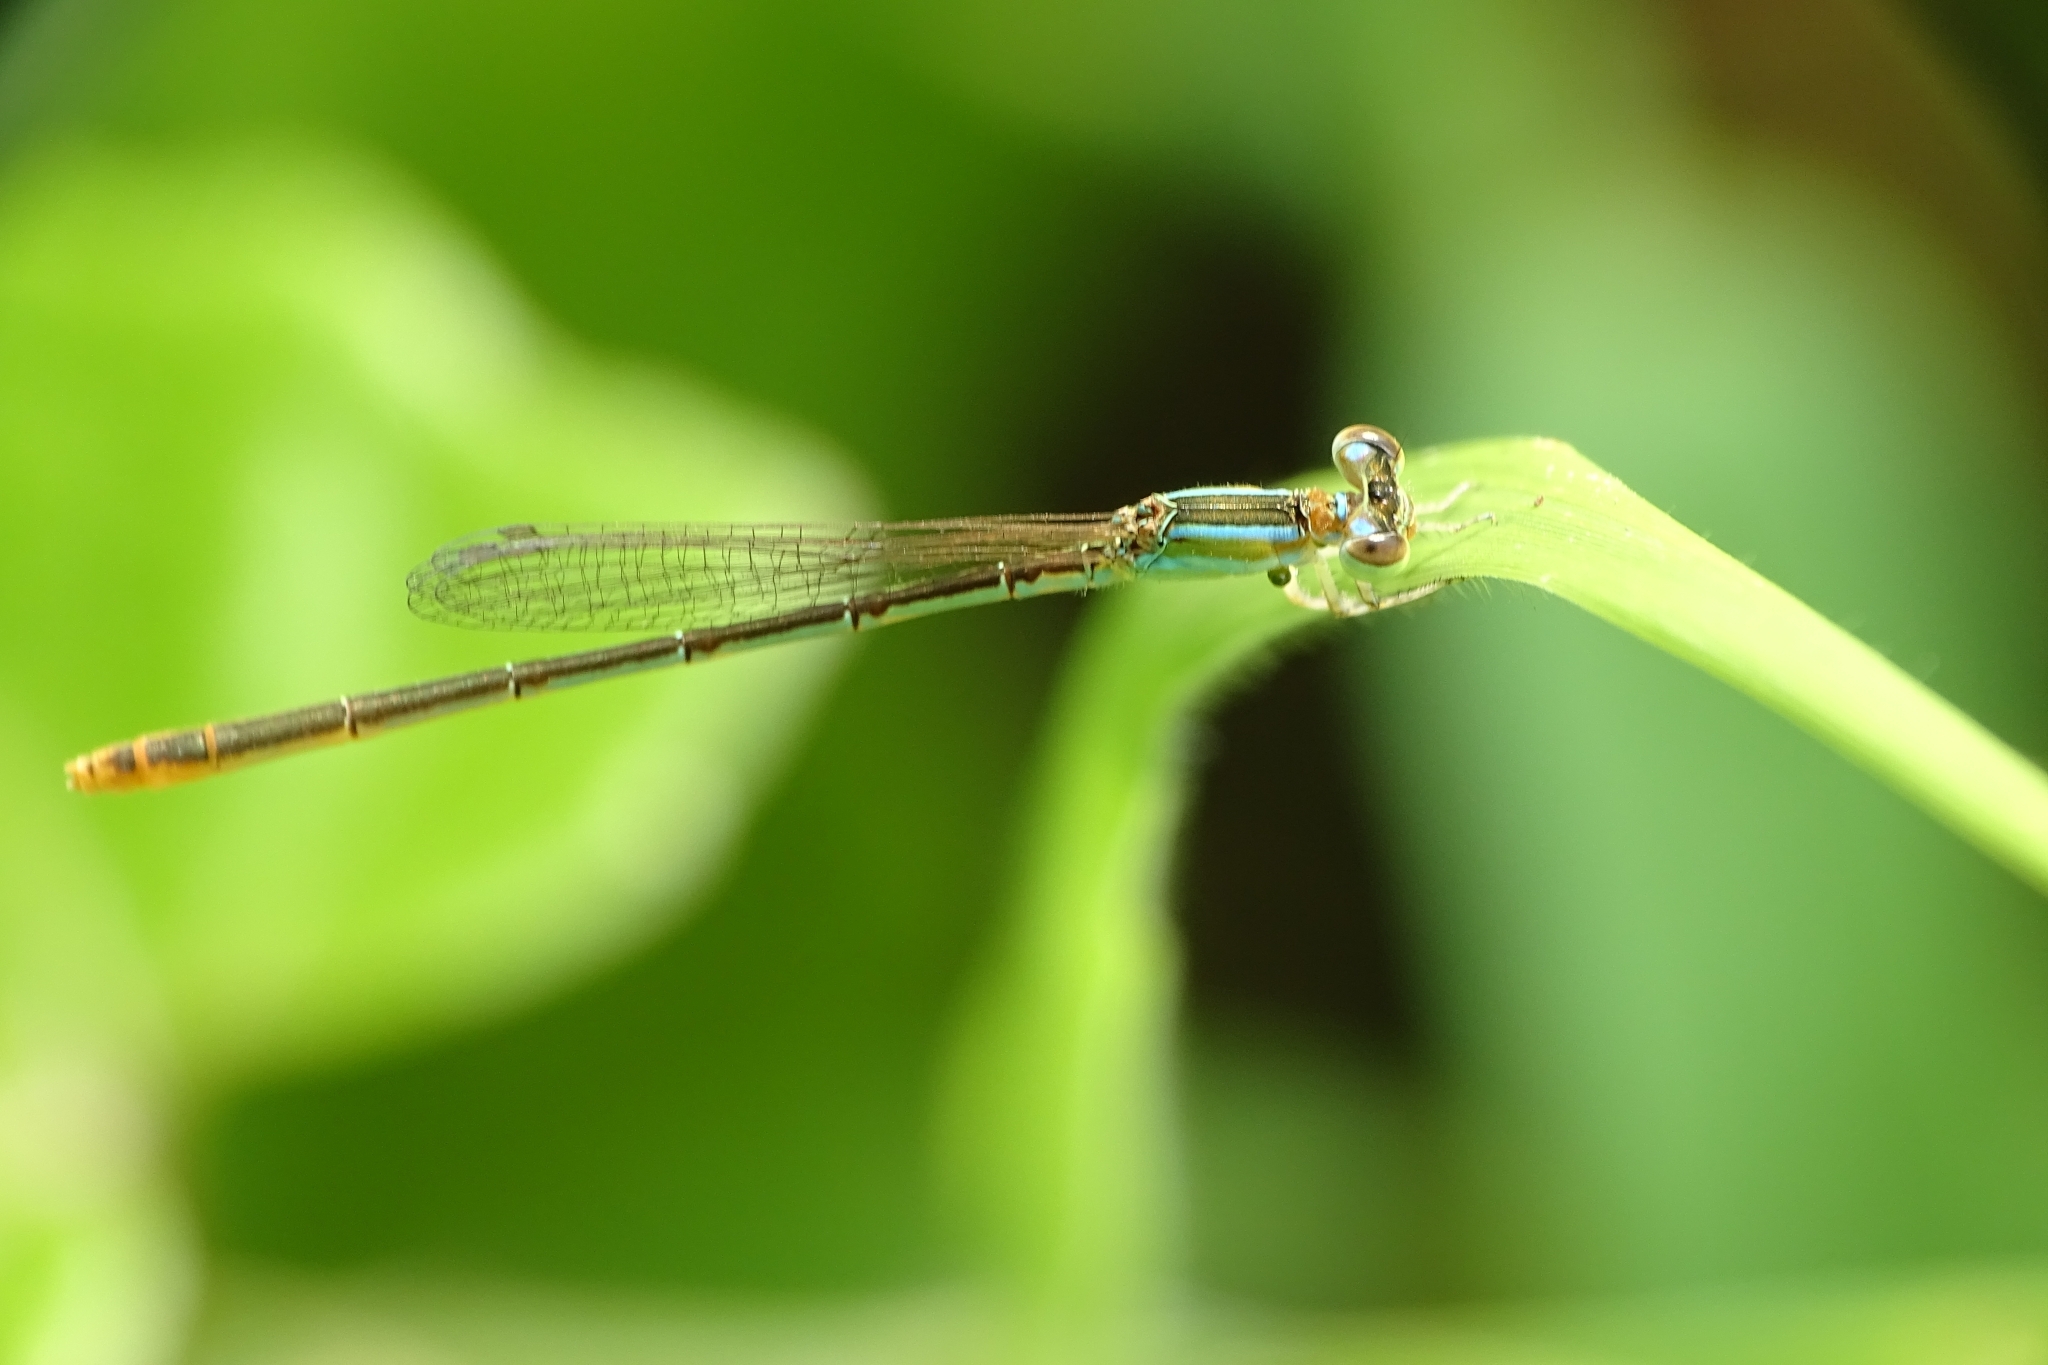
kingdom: Animalia
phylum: Arthropoda
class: Insecta
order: Odonata
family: Coenagrionidae
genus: Agriocnemis
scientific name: Agriocnemis pygmaea
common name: Pygmy wisp
